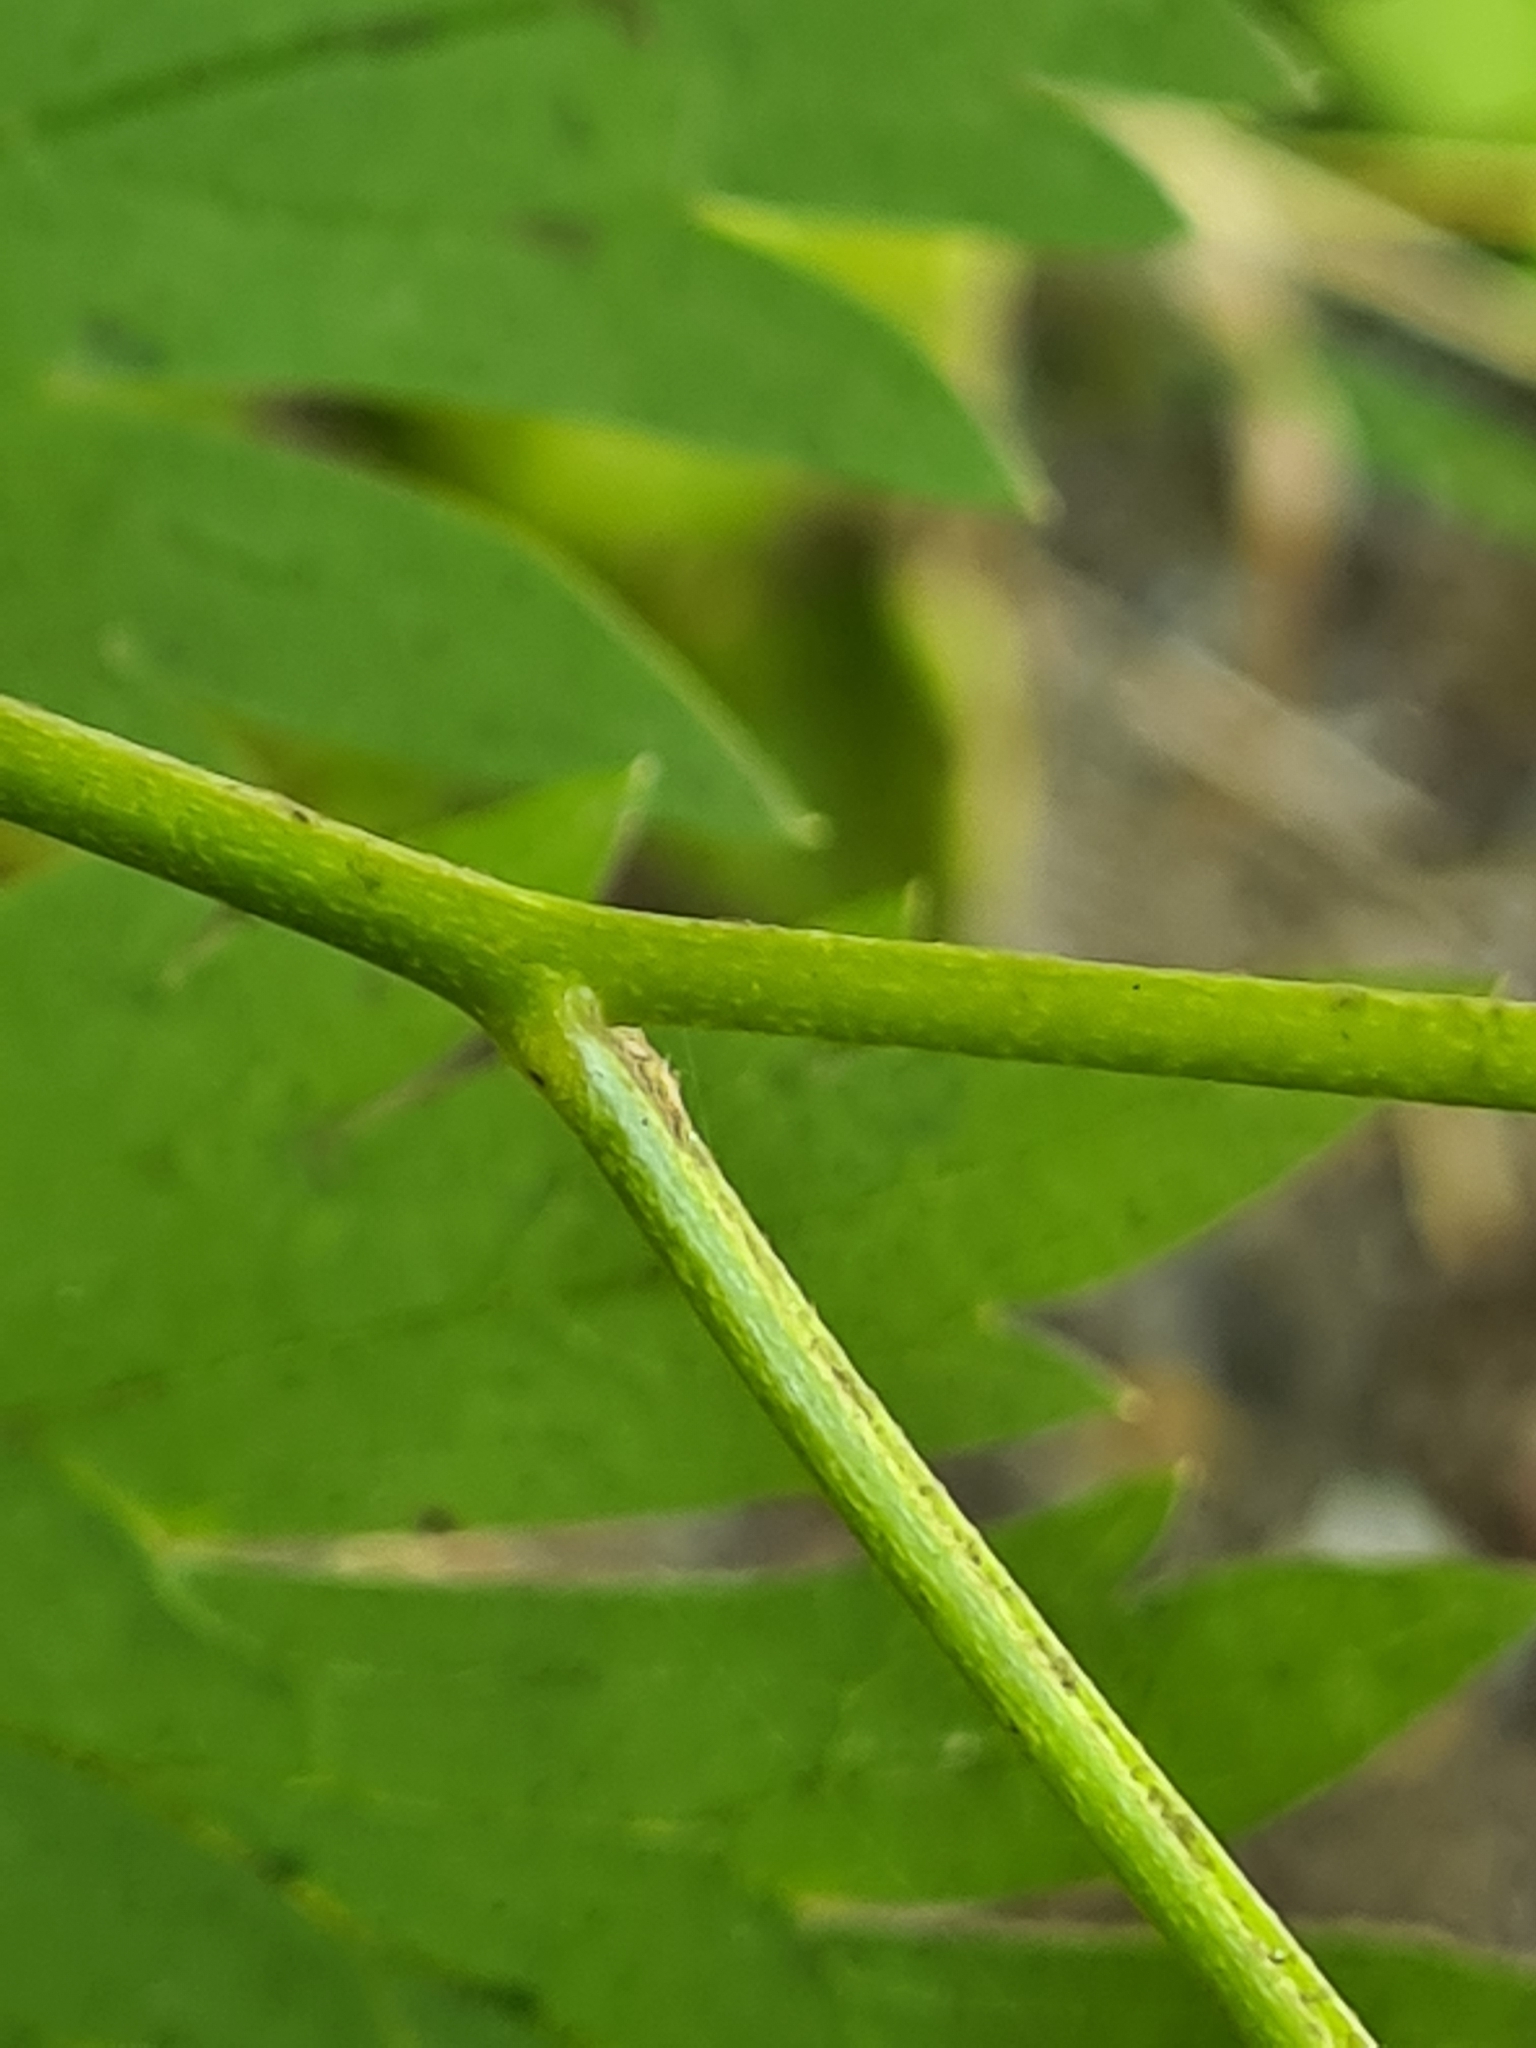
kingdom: Plantae
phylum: Tracheophyta
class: Magnoliopsida
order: Ranunculales
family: Ranunculaceae
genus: Aconitum
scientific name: Aconitum degenii
